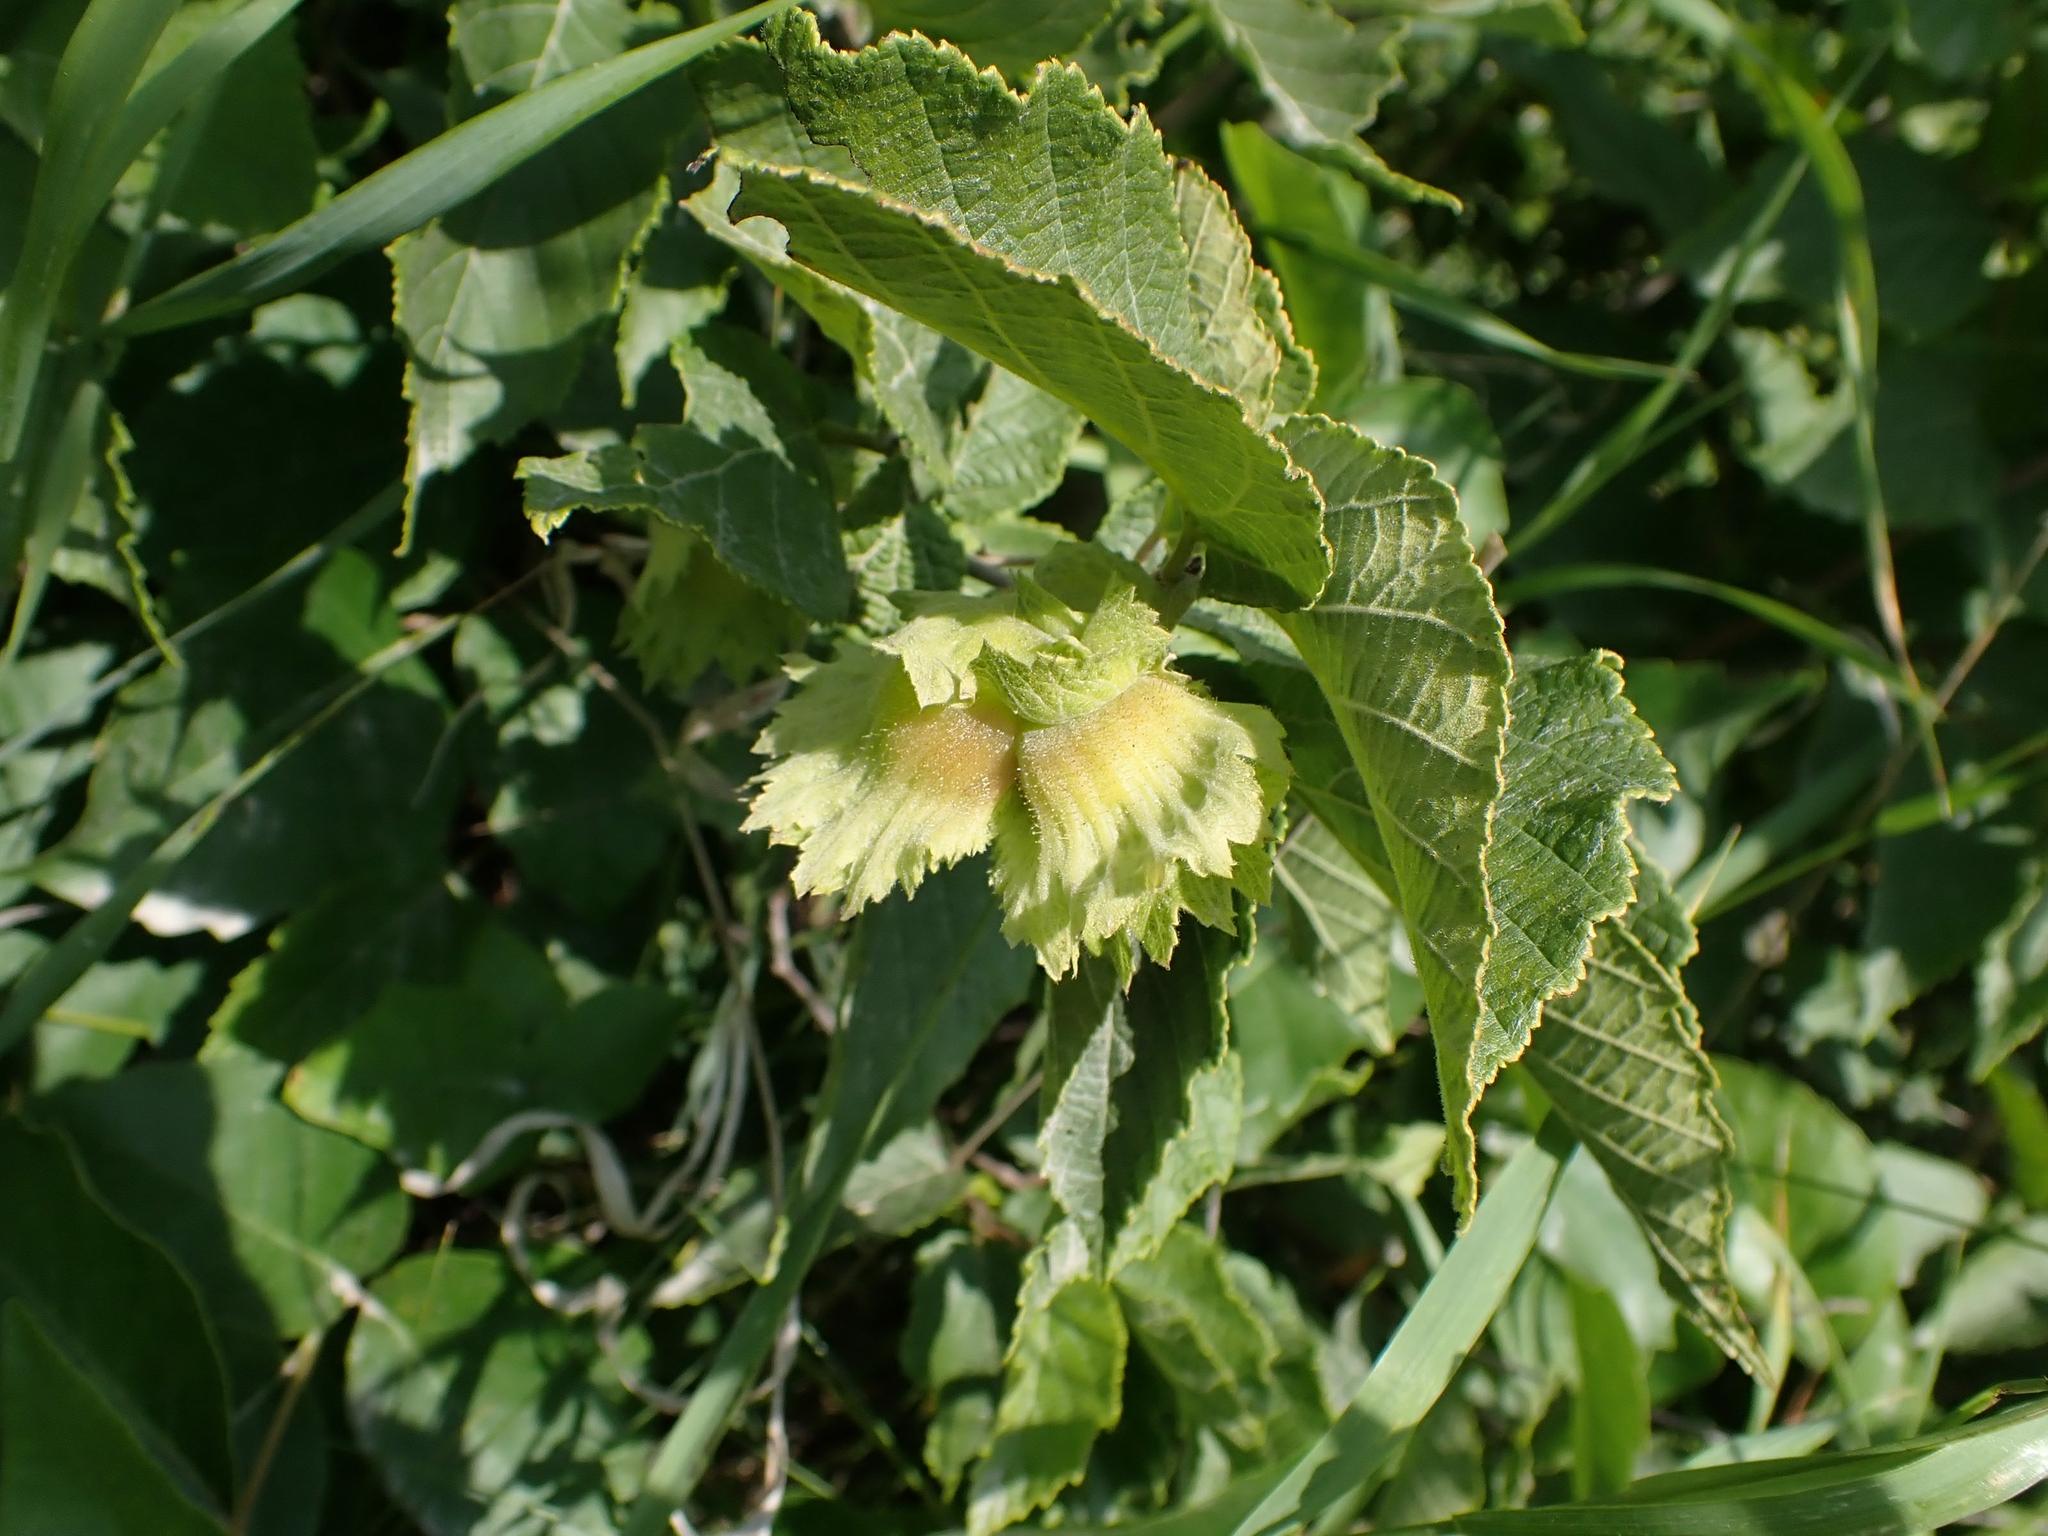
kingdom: Plantae
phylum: Tracheophyta
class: Magnoliopsida
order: Fagales
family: Betulaceae
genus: Corylus
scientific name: Corylus americana
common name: American hazel
